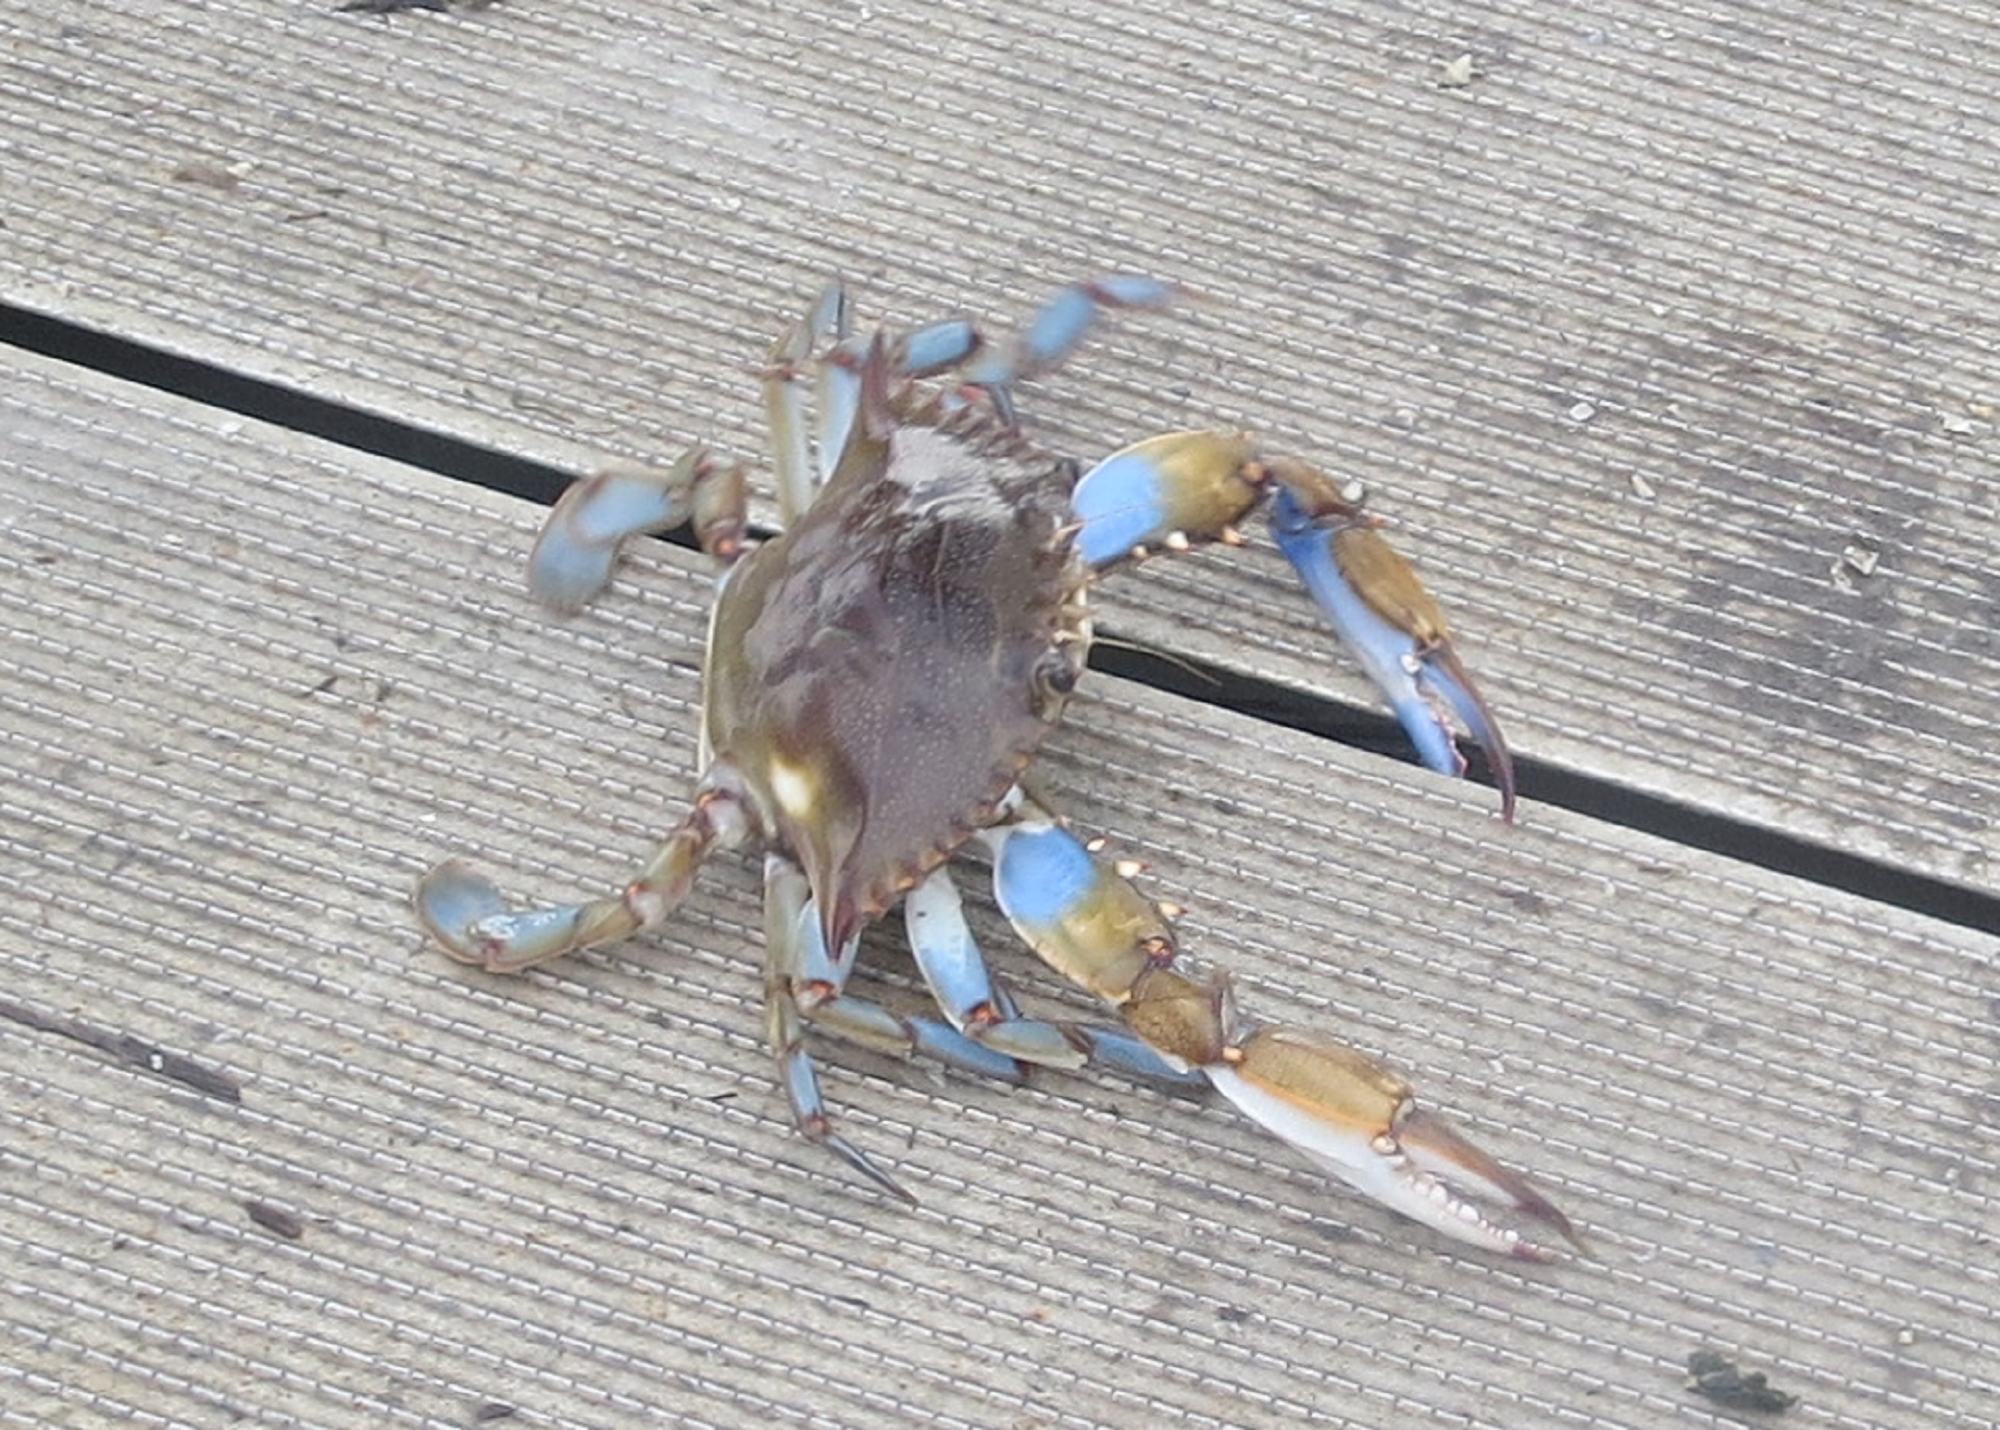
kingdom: Animalia
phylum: Arthropoda
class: Malacostraca
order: Decapoda
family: Portunidae
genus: Callinectes
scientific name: Callinectes sapidus
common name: Blue crab
